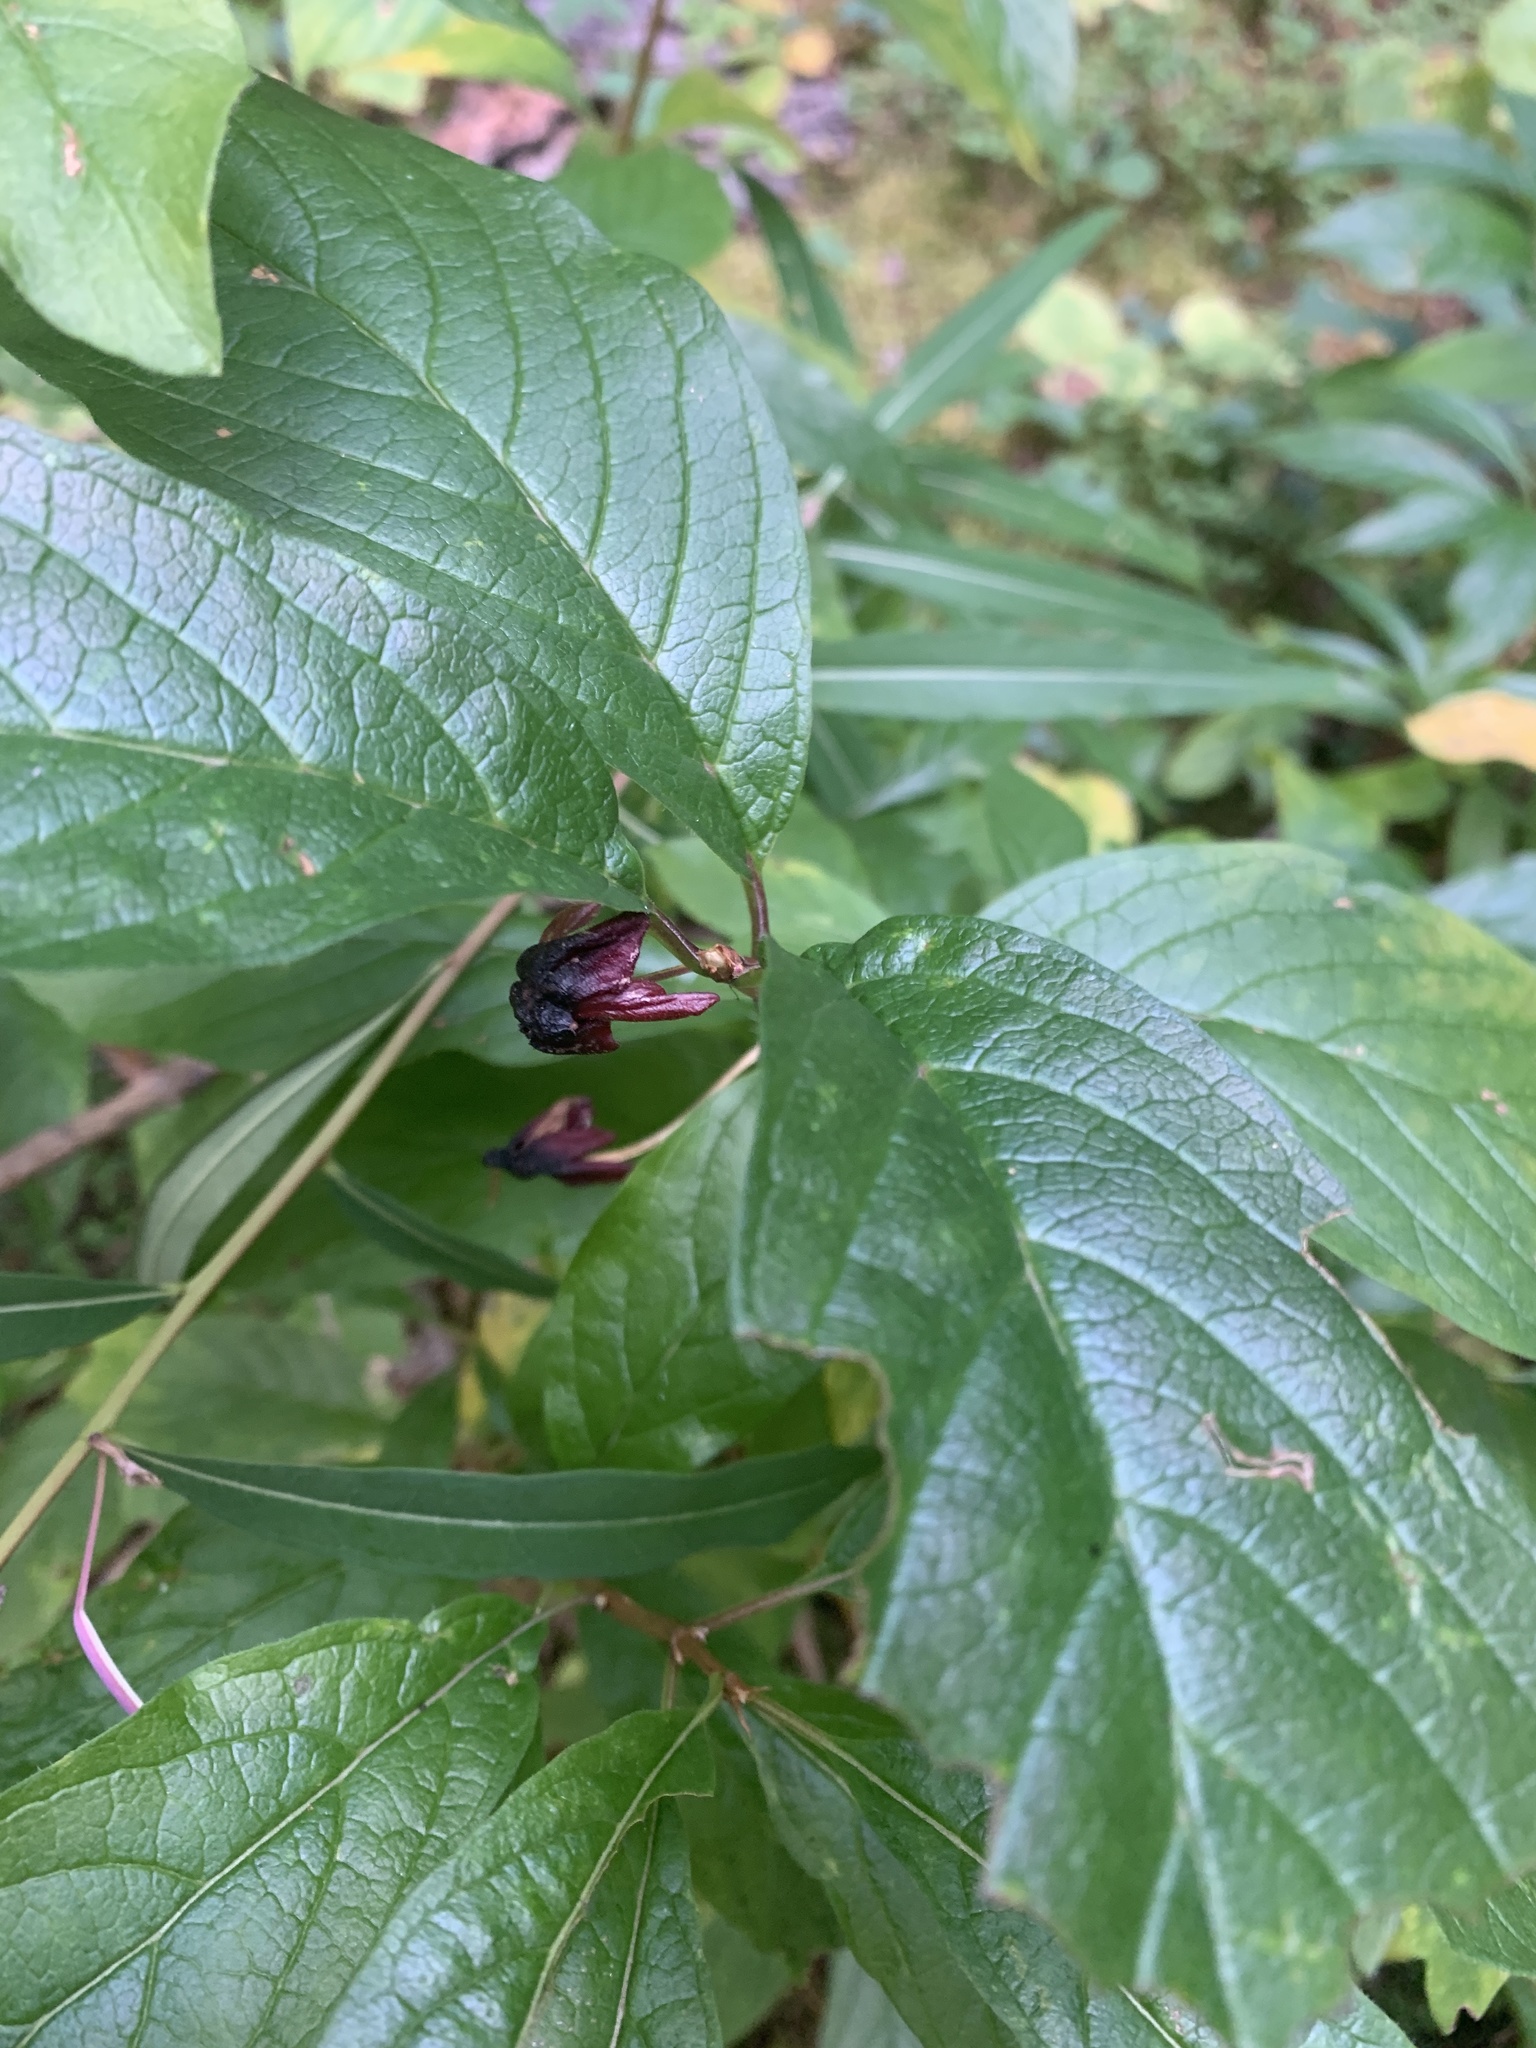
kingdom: Plantae
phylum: Tracheophyta
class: Magnoliopsida
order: Dipsacales
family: Caprifoliaceae
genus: Lonicera
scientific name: Lonicera involucrata
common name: Californian honeysuckle
